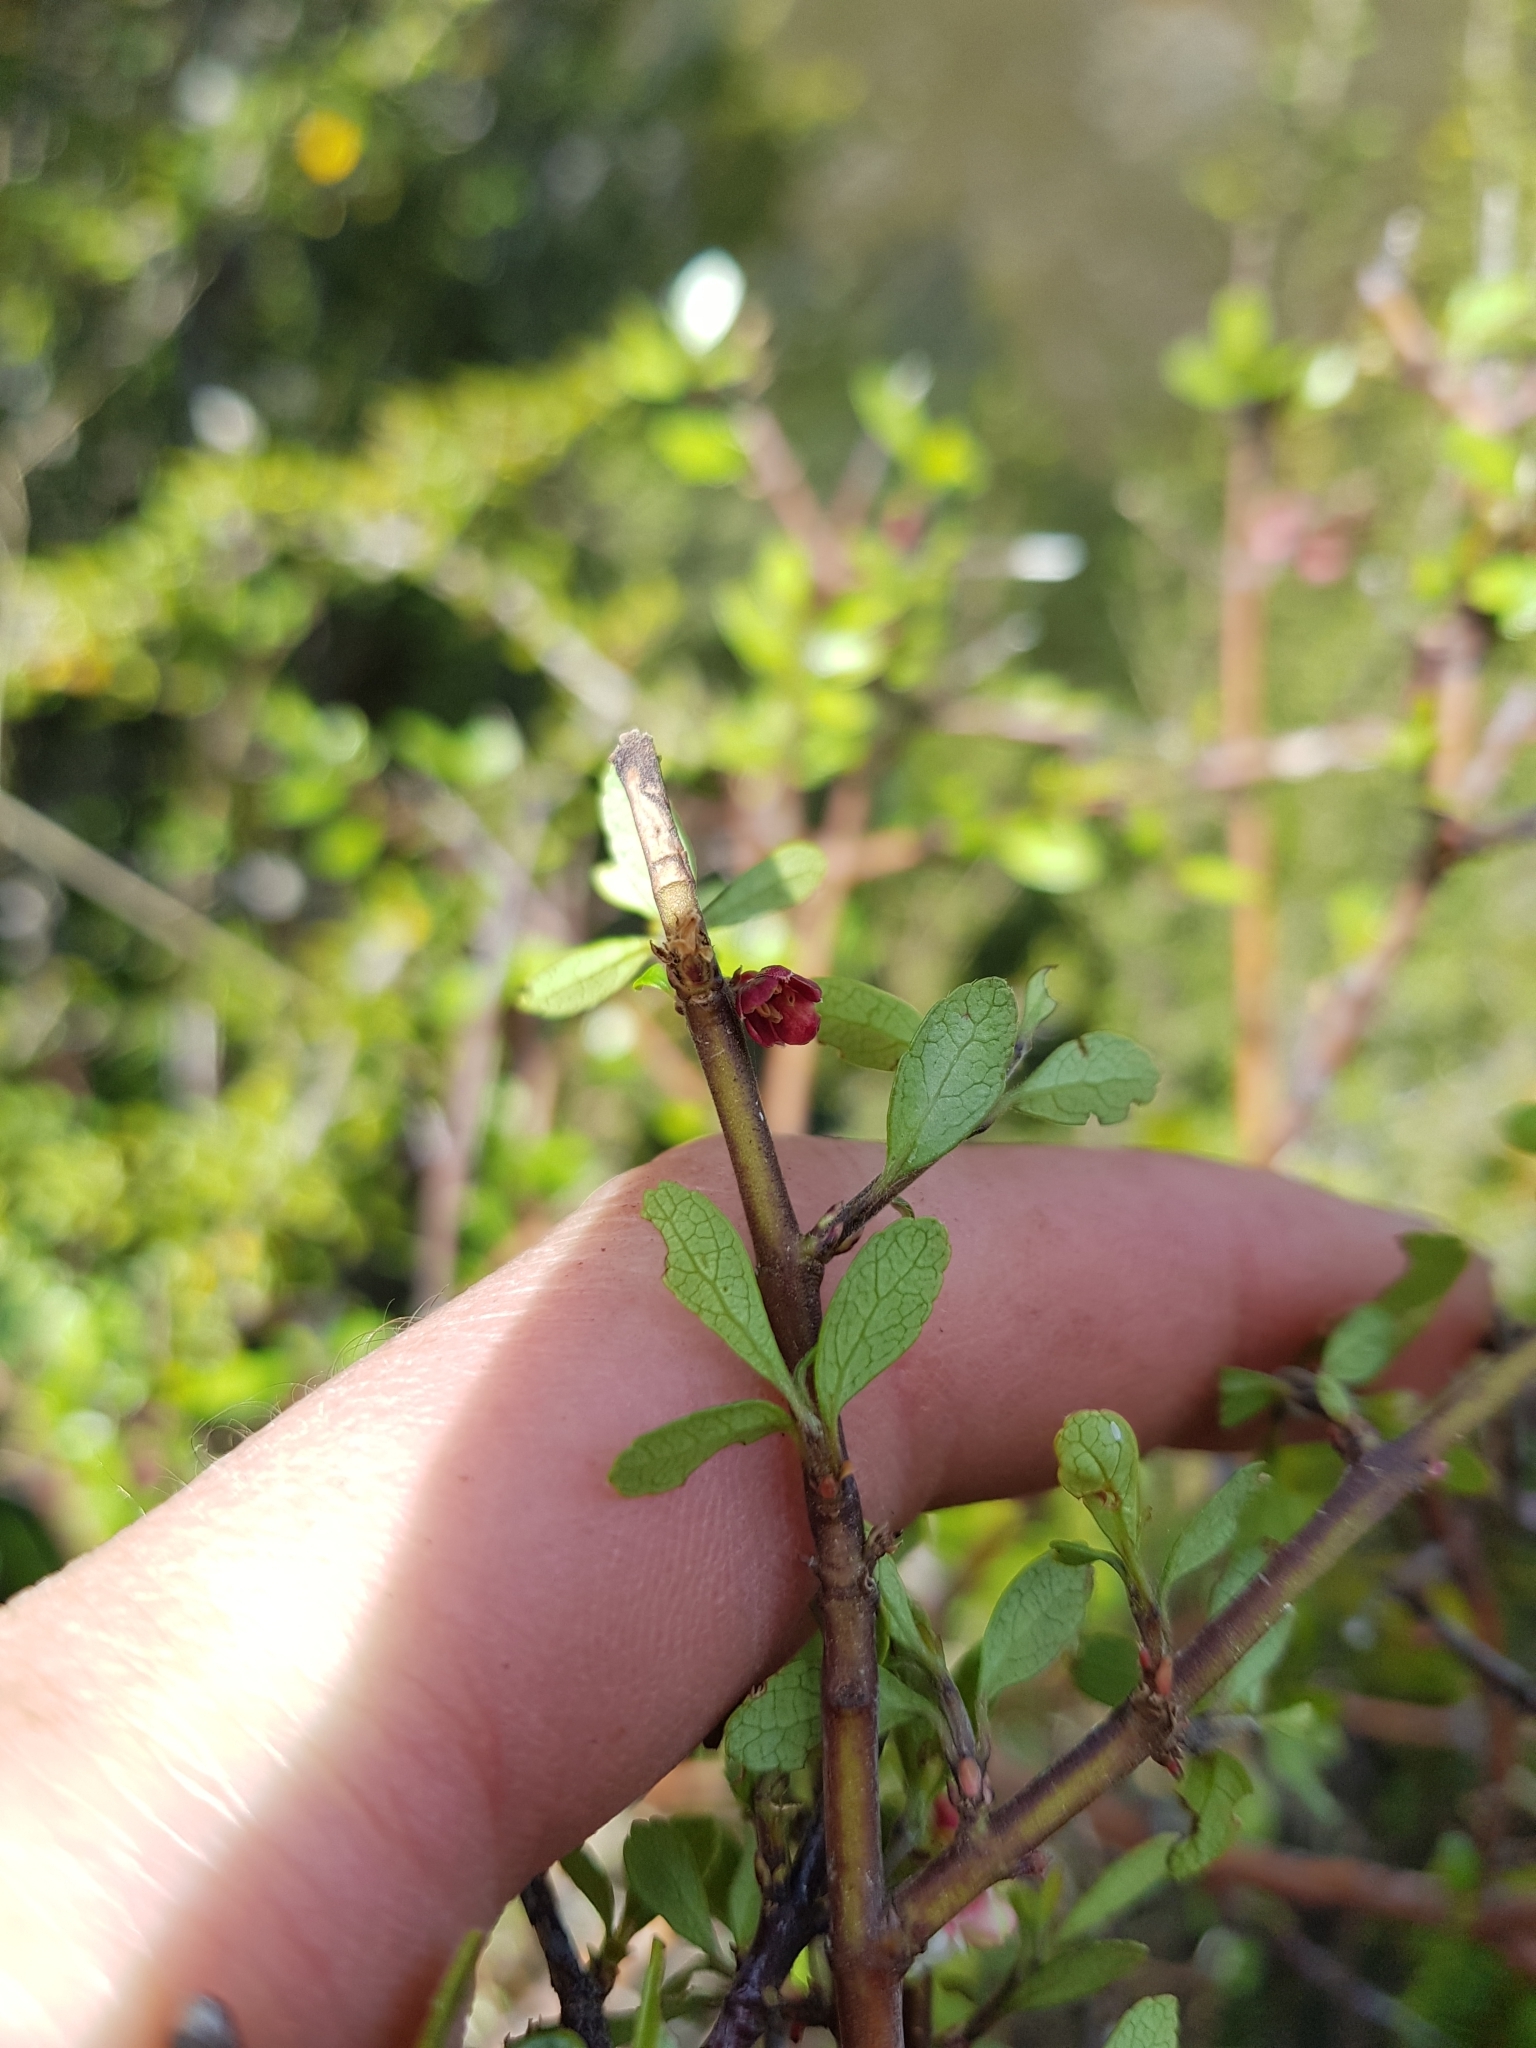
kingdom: Plantae
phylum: Tracheophyta
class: Magnoliopsida
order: Oxalidales
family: Elaeocarpaceae
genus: Aristotelia
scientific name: Aristotelia fruticosa
